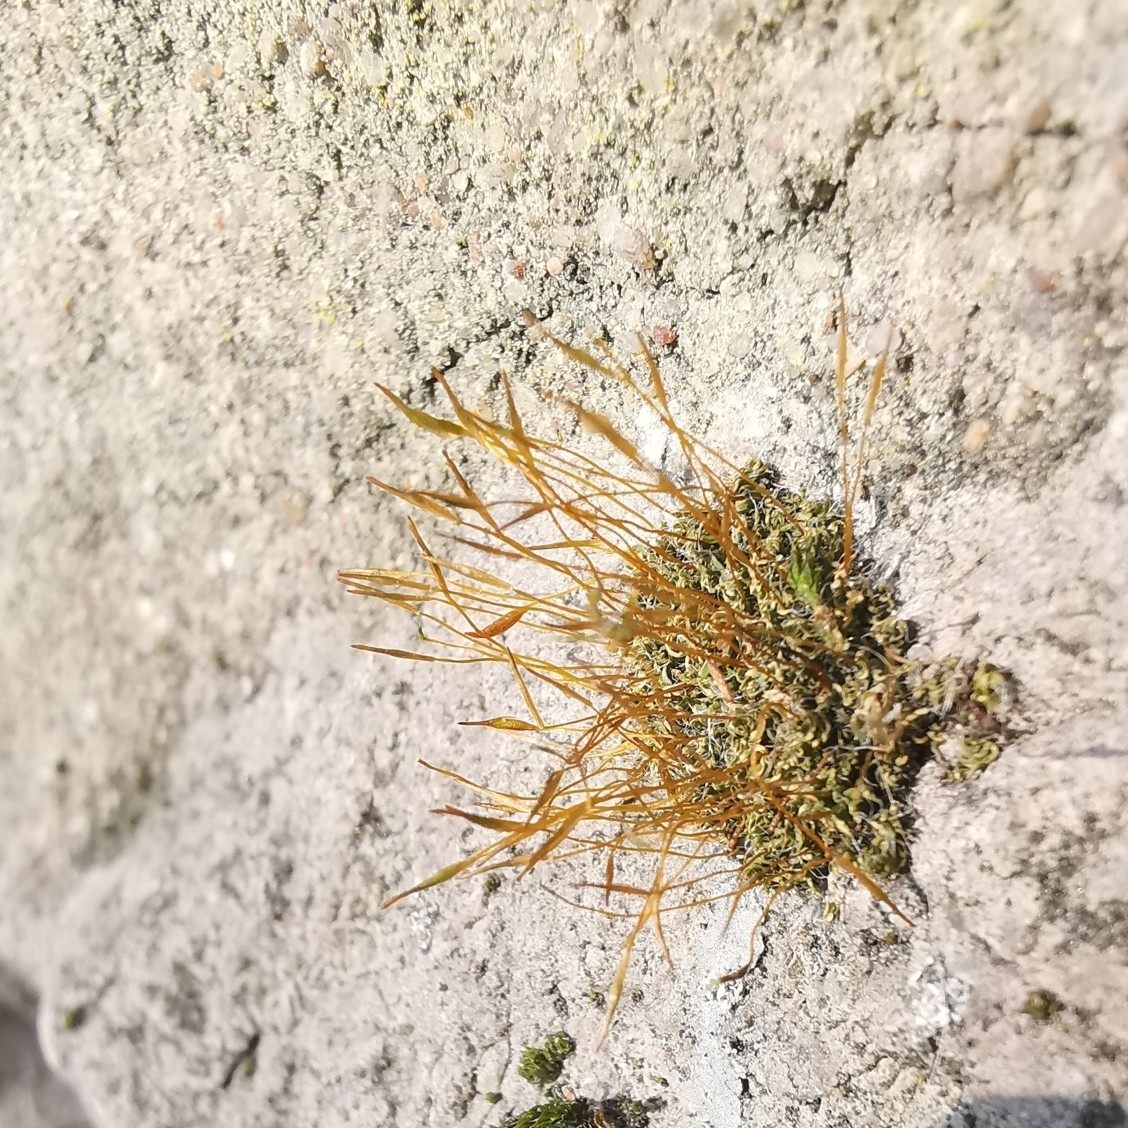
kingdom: Plantae
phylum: Bryophyta
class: Bryopsida
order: Pottiales
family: Pottiaceae
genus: Tortula
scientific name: Tortula muralis
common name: Wall screw-moss
